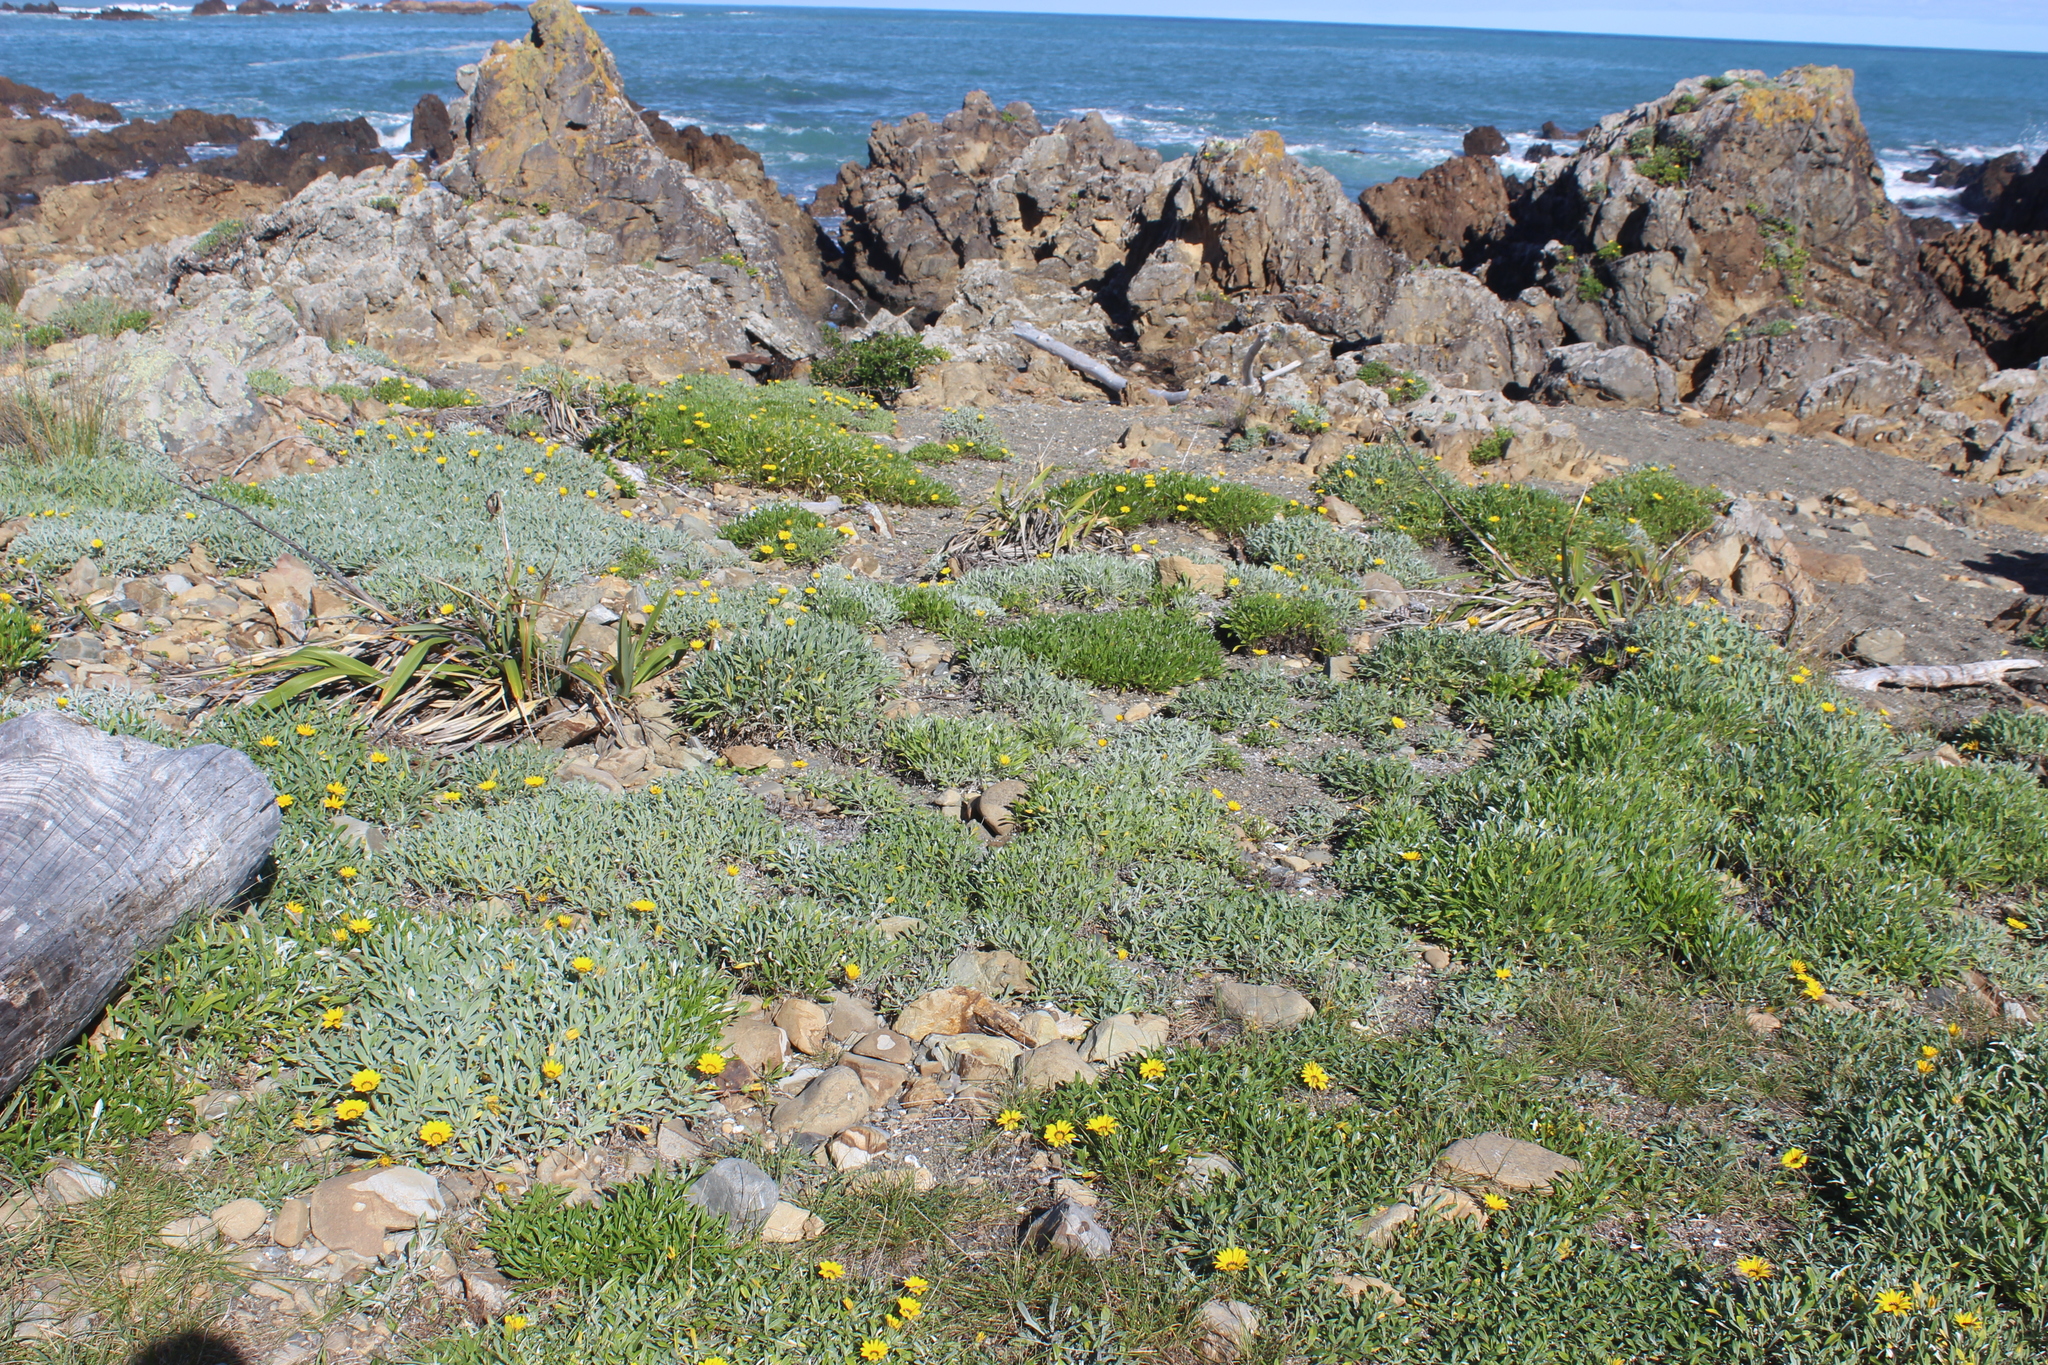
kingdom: Plantae
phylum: Tracheophyta
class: Magnoliopsida
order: Asterales
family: Asteraceae
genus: Gazania
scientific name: Gazania splendens
